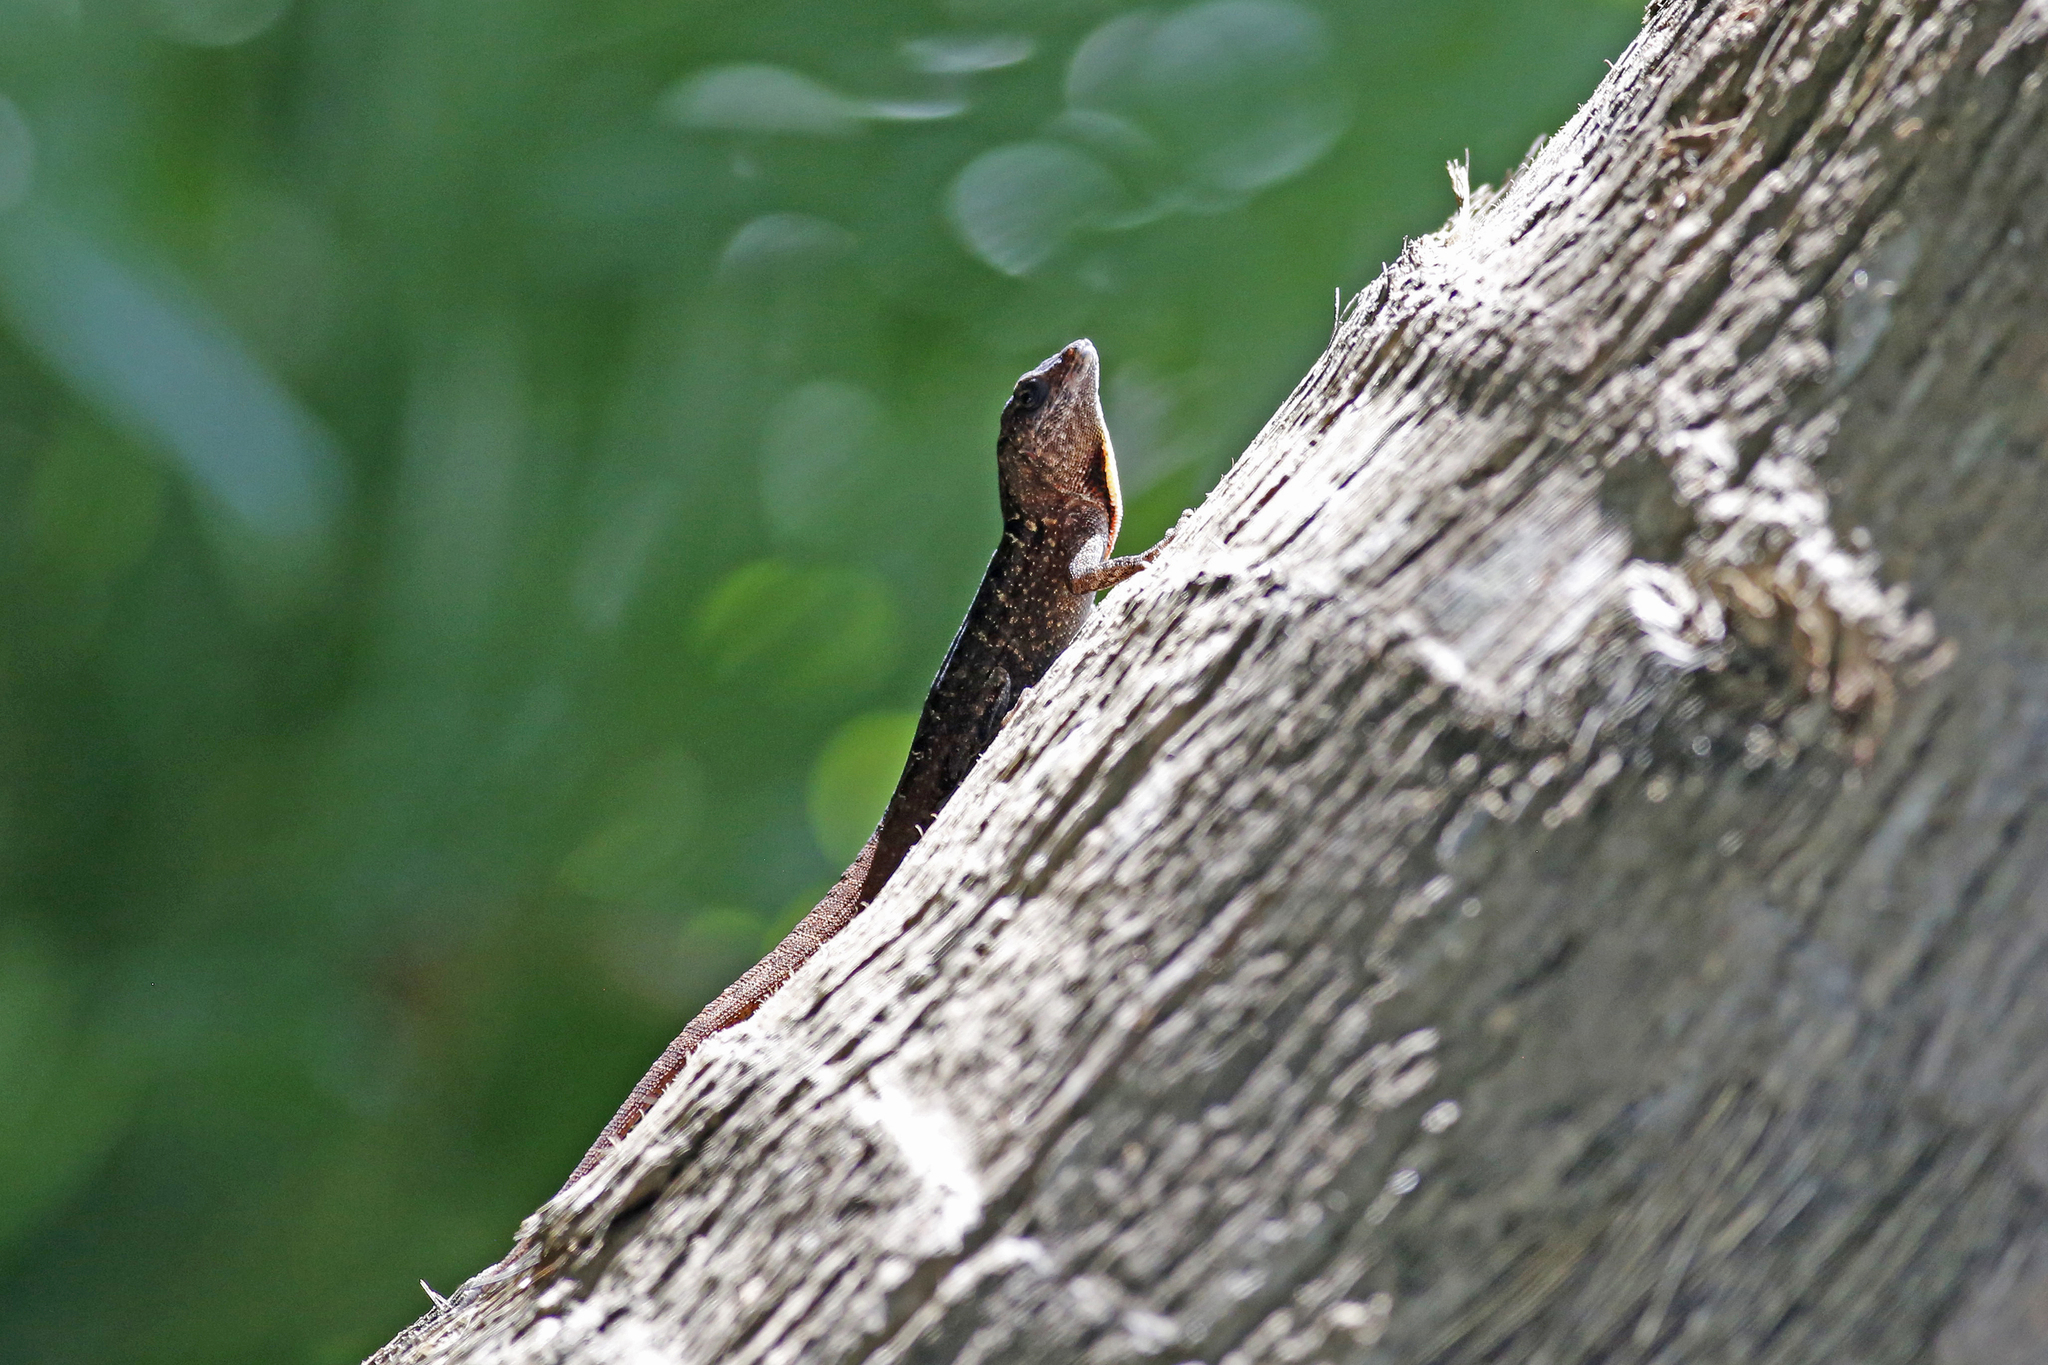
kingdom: Animalia
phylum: Chordata
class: Squamata
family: Dactyloidae
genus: Anolis
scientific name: Anolis sagrei
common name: Brown anole
